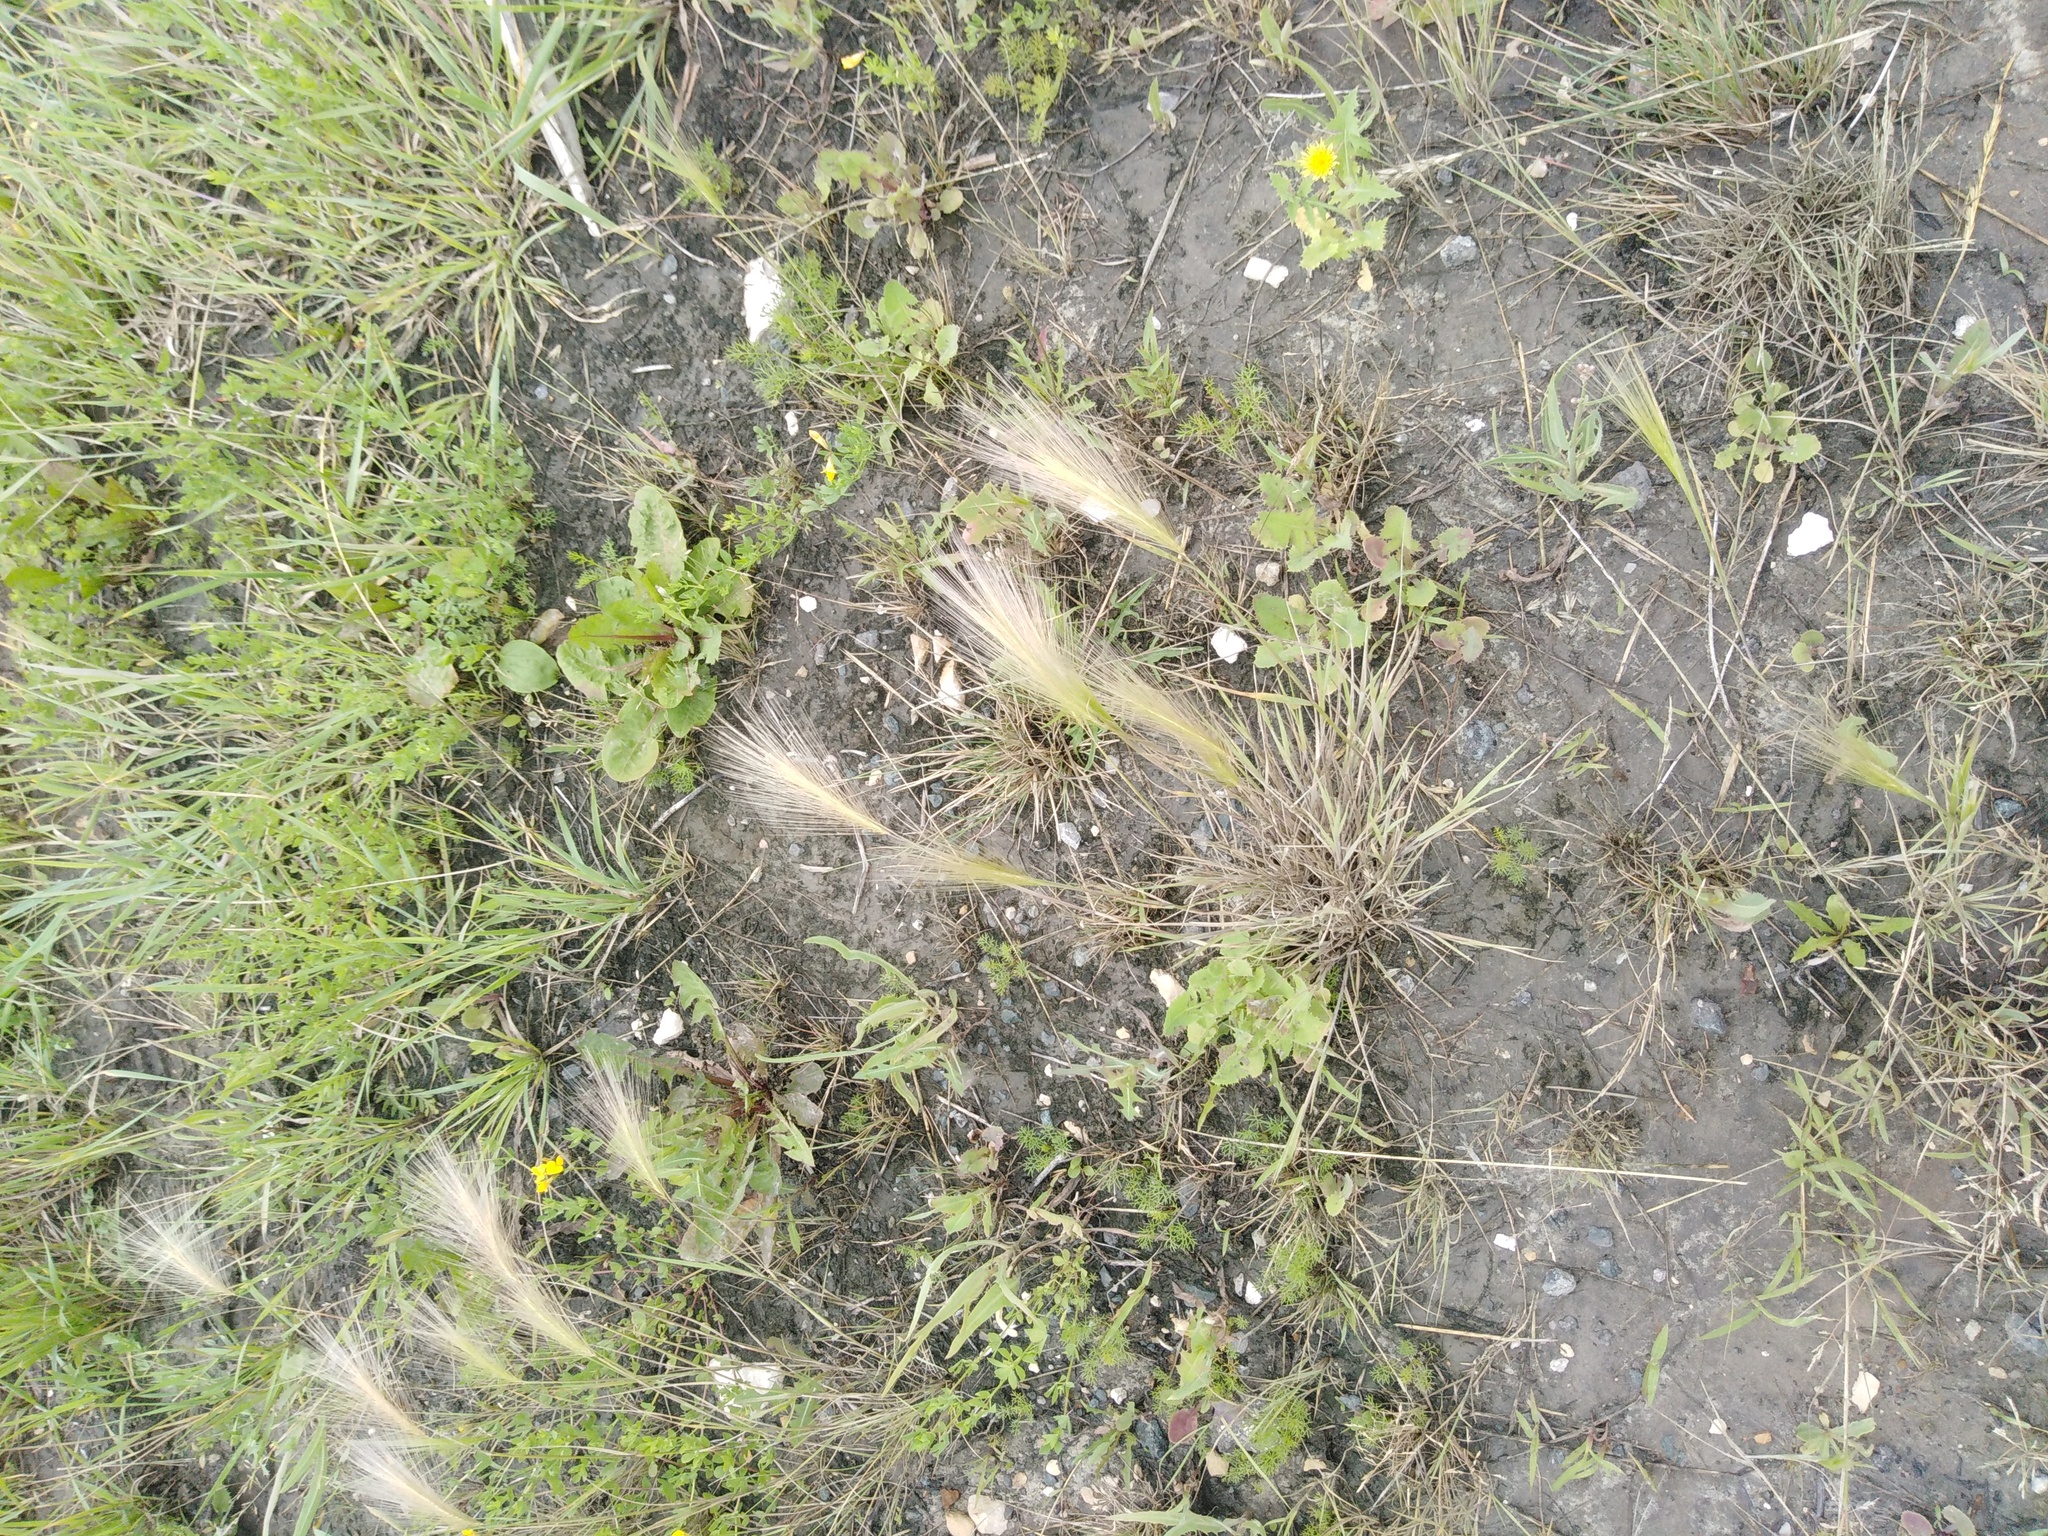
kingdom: Plantae
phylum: Tracheophyta
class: Liliopsida
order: Poales
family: Poaceae
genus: Hordeum
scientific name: Hordeum jubatum
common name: Foxtail barley
